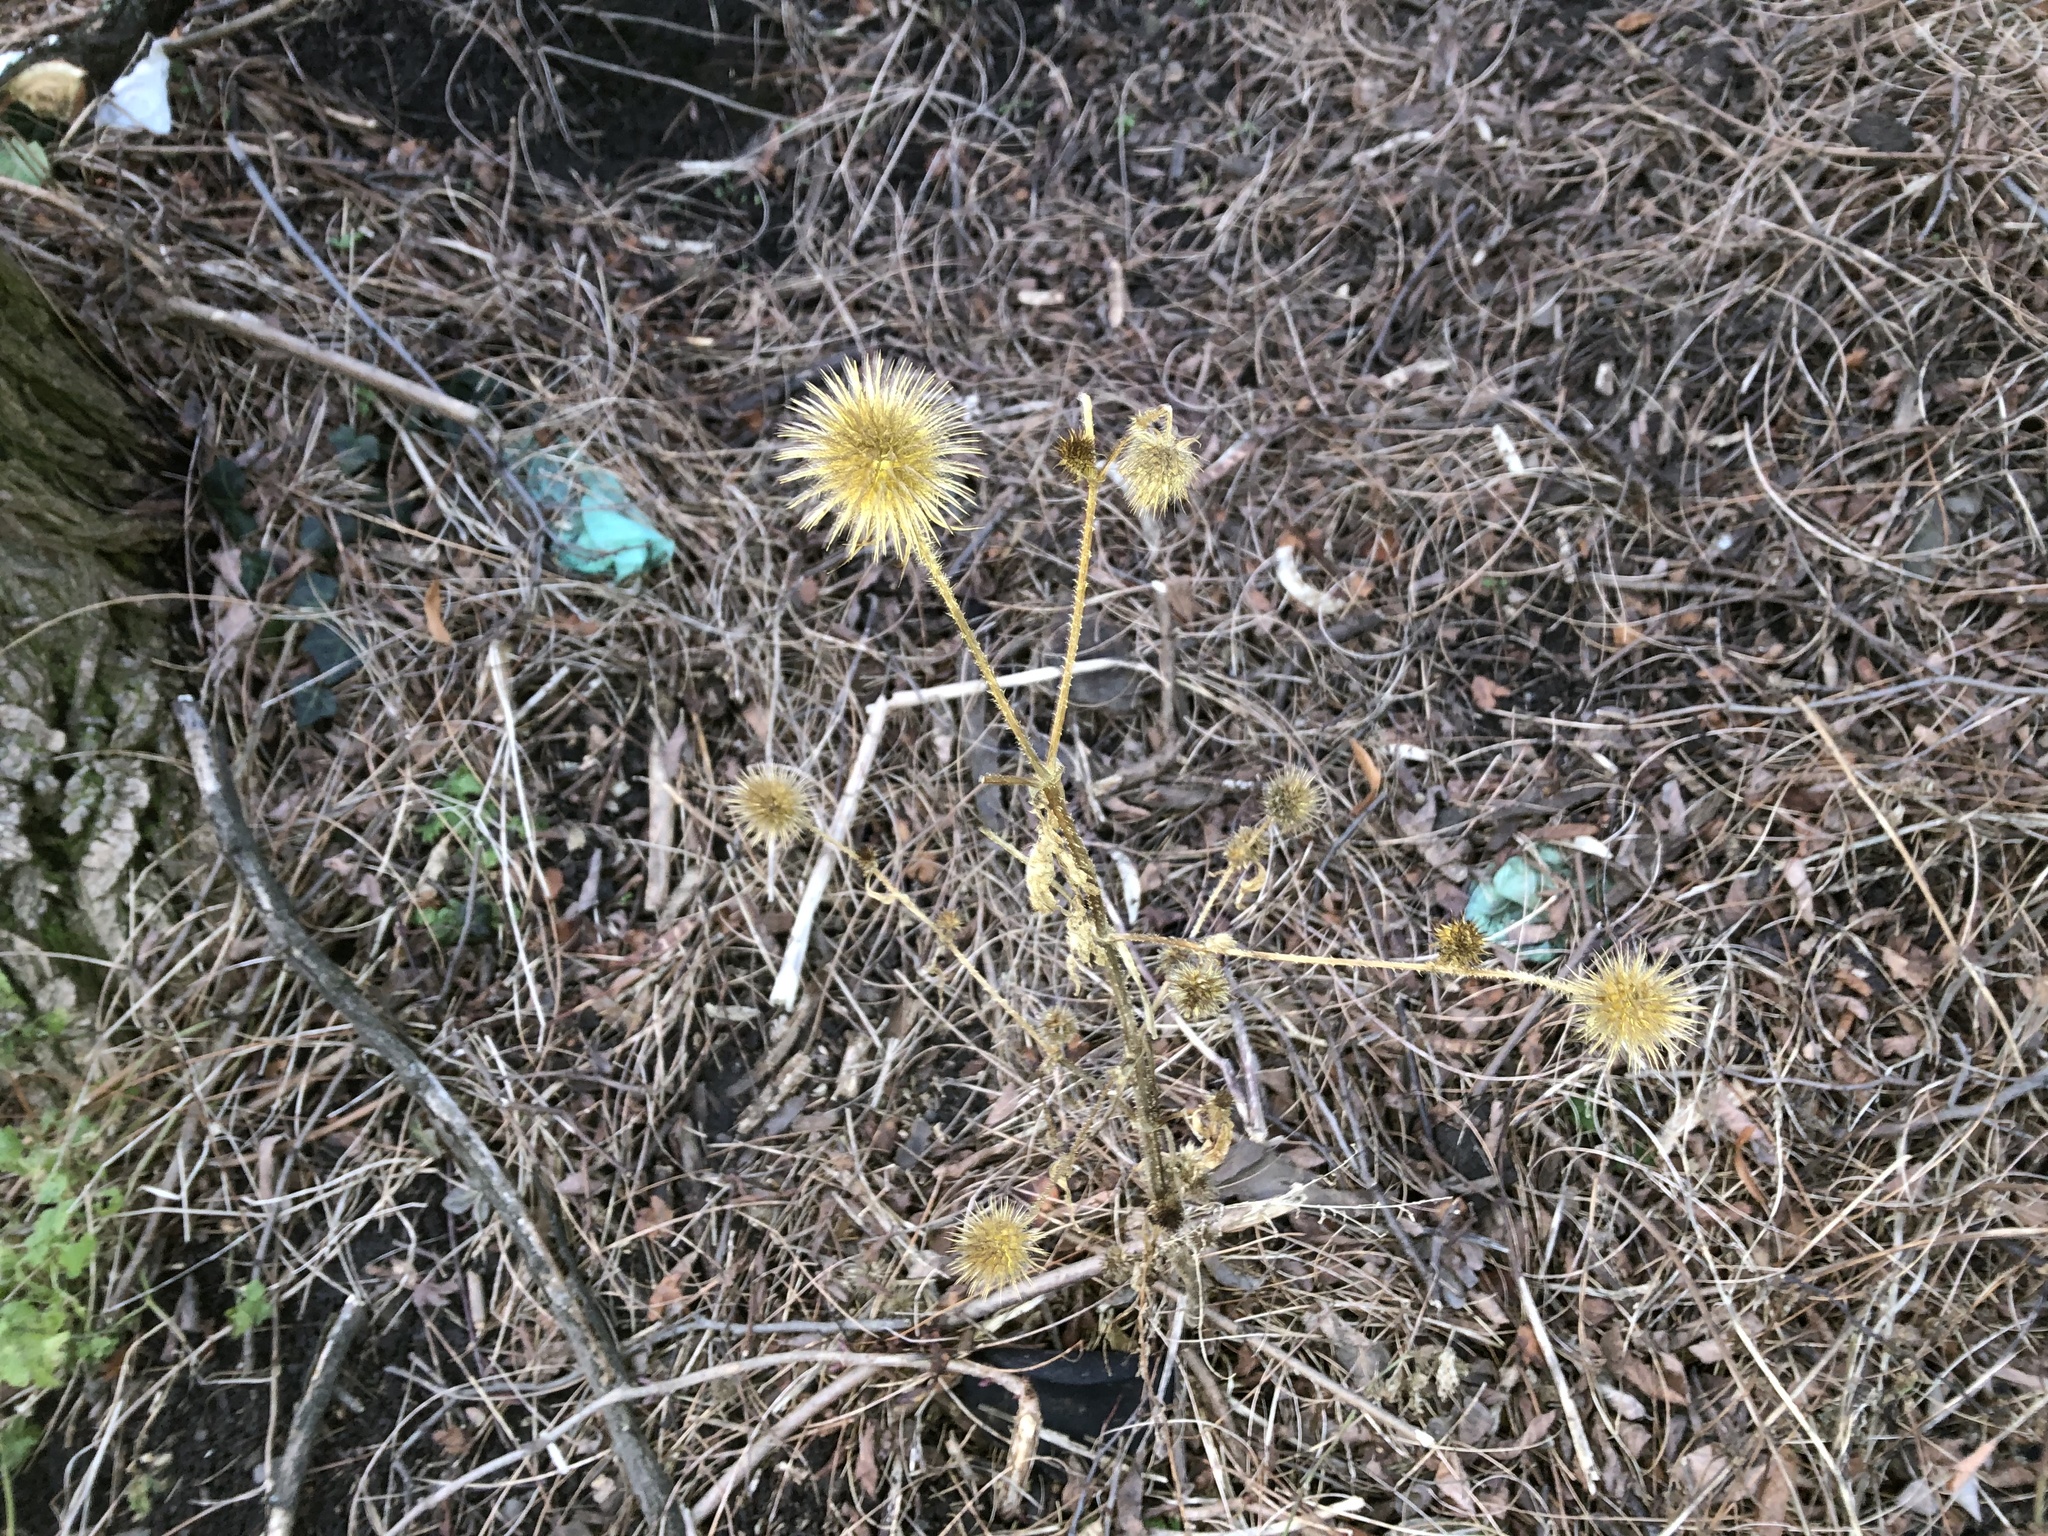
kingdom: Plantae
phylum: Tracheophyta
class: Magnoliopsida
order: Dipsacales
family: Caprifoliaceae
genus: Dipsacus
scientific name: Dipsacus strigosus
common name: Yellow-flowered teasel
